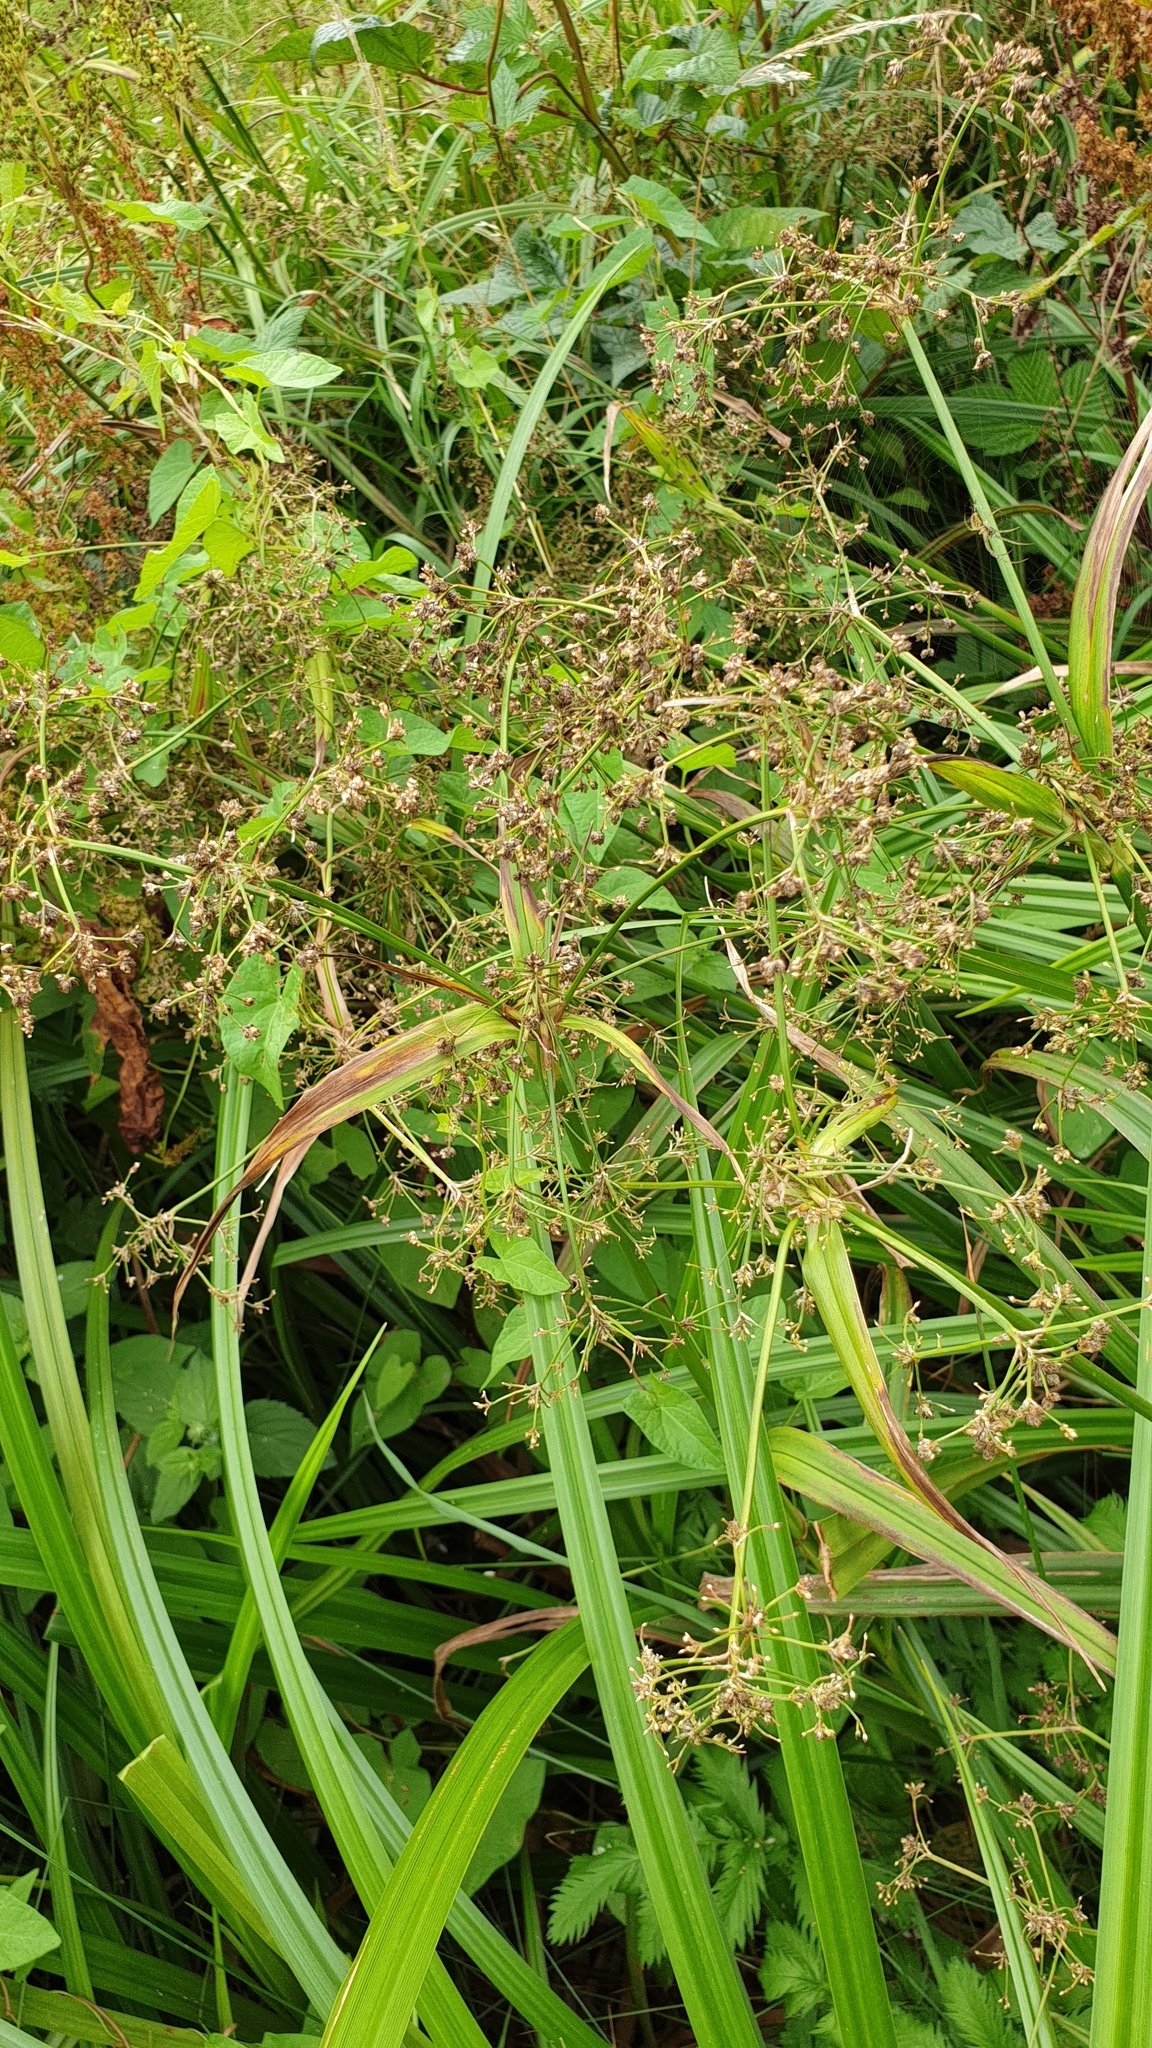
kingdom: Plantae
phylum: Tracheophyta
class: Liliopsida
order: Poales
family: Cyperaceae
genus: Scirpus
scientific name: Scirpus sylvaticus
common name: Wood club-rush
